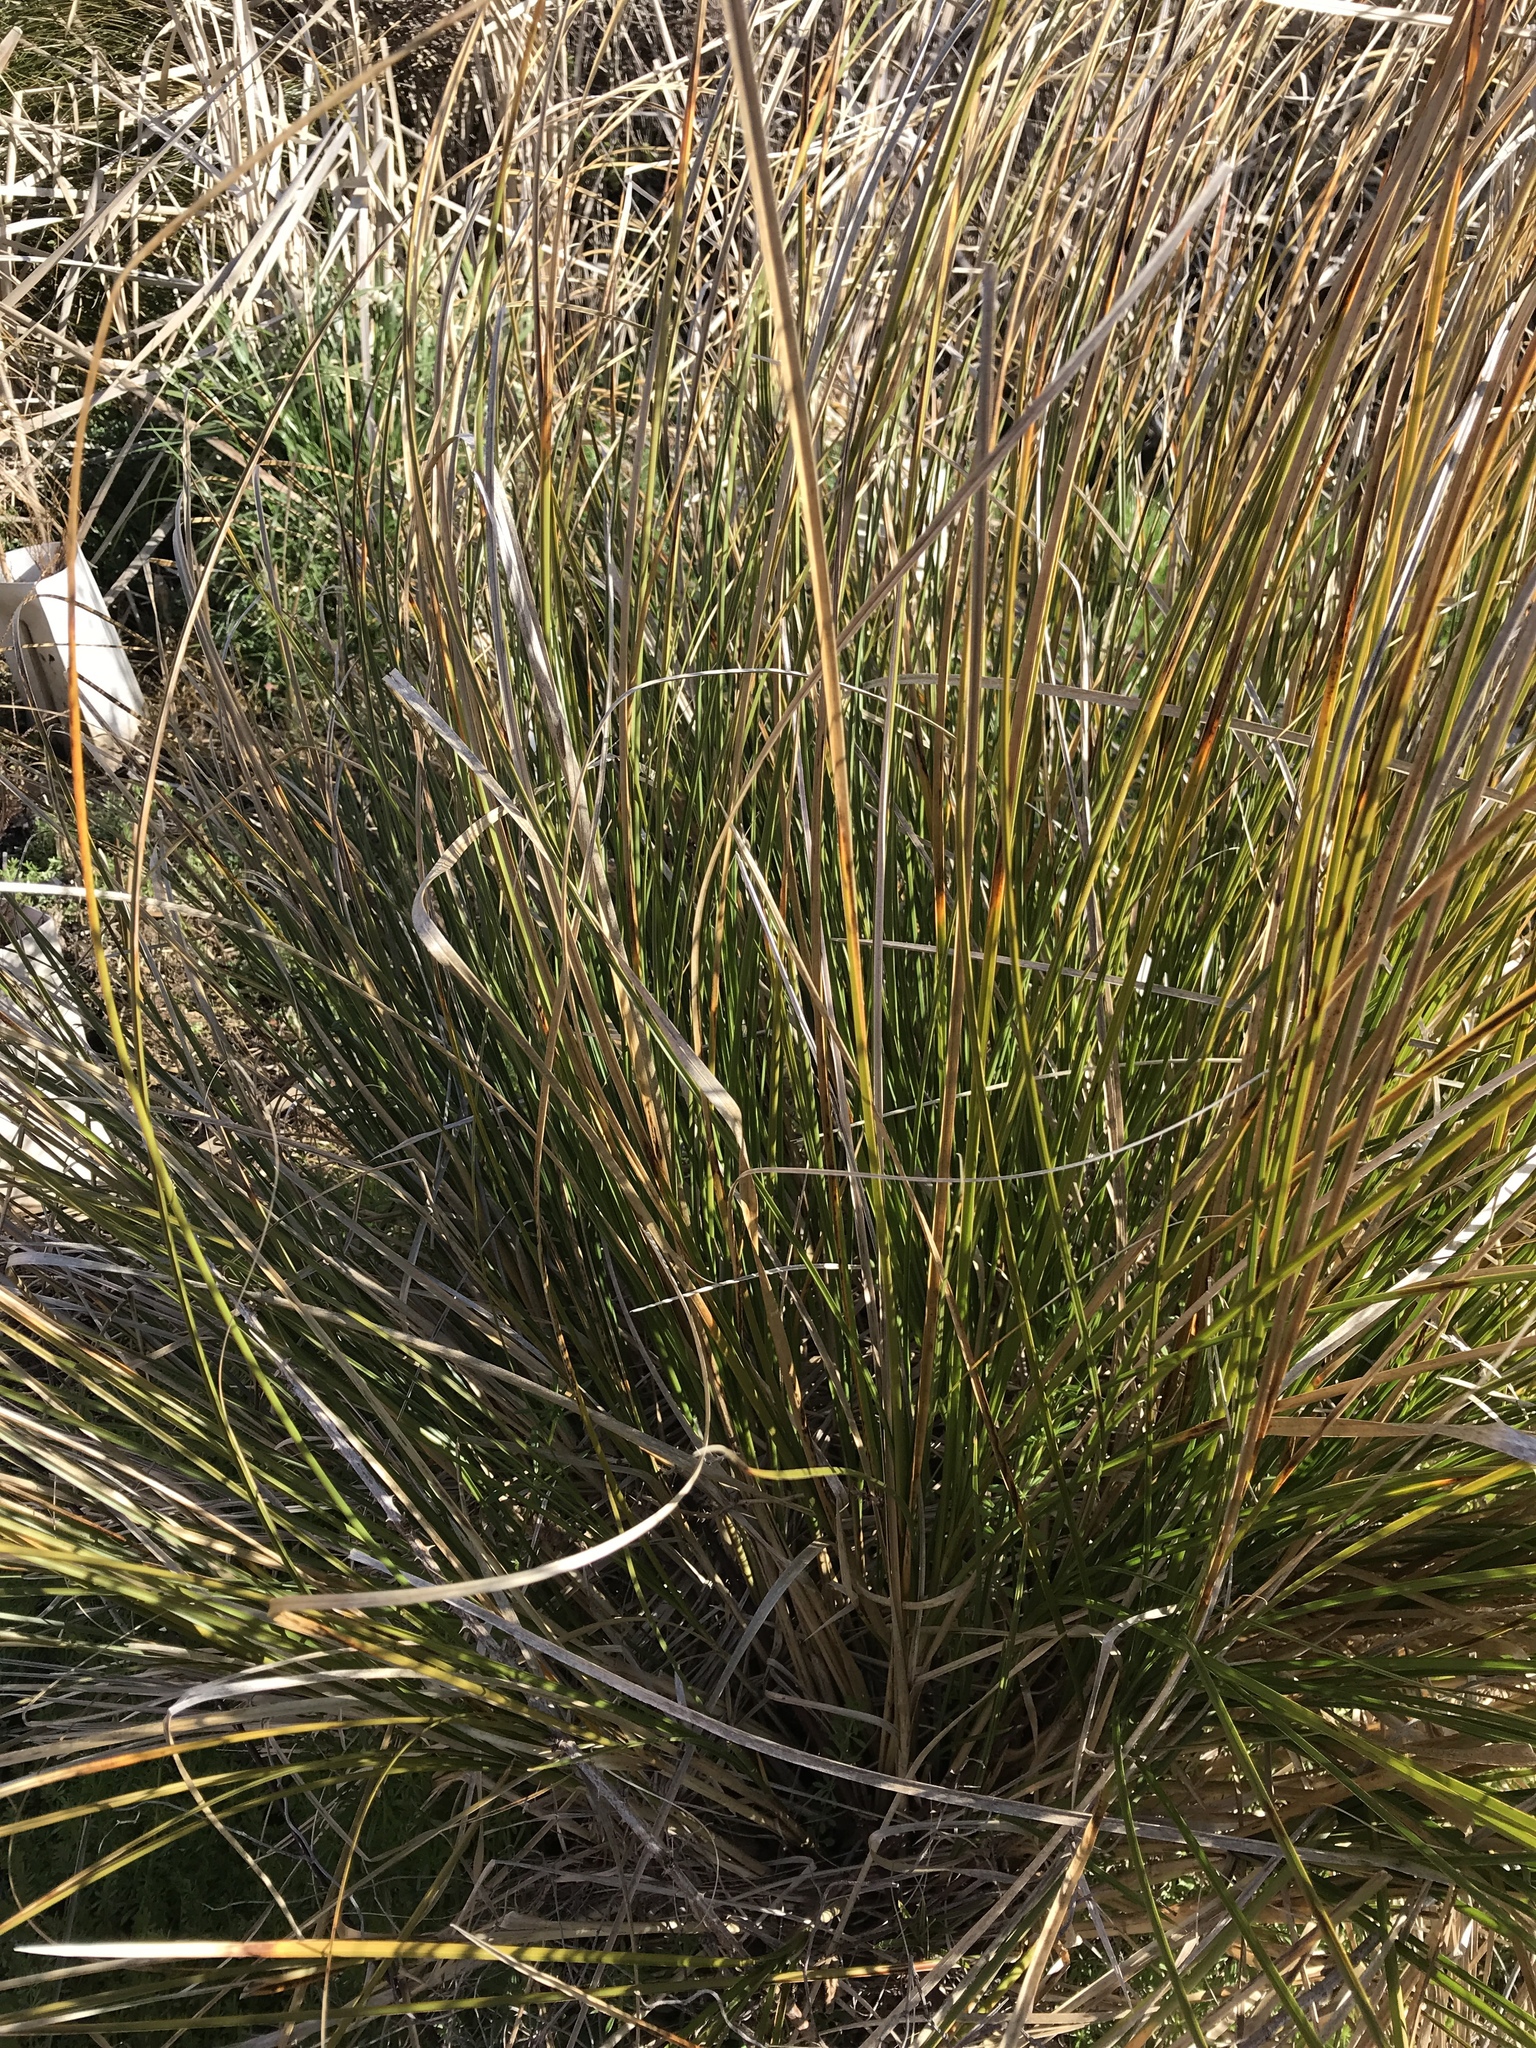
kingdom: Plantae
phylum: Tracheophyta
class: Liliopsida
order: Poales
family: Cyperaceae
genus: Carex
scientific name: Carex secta
